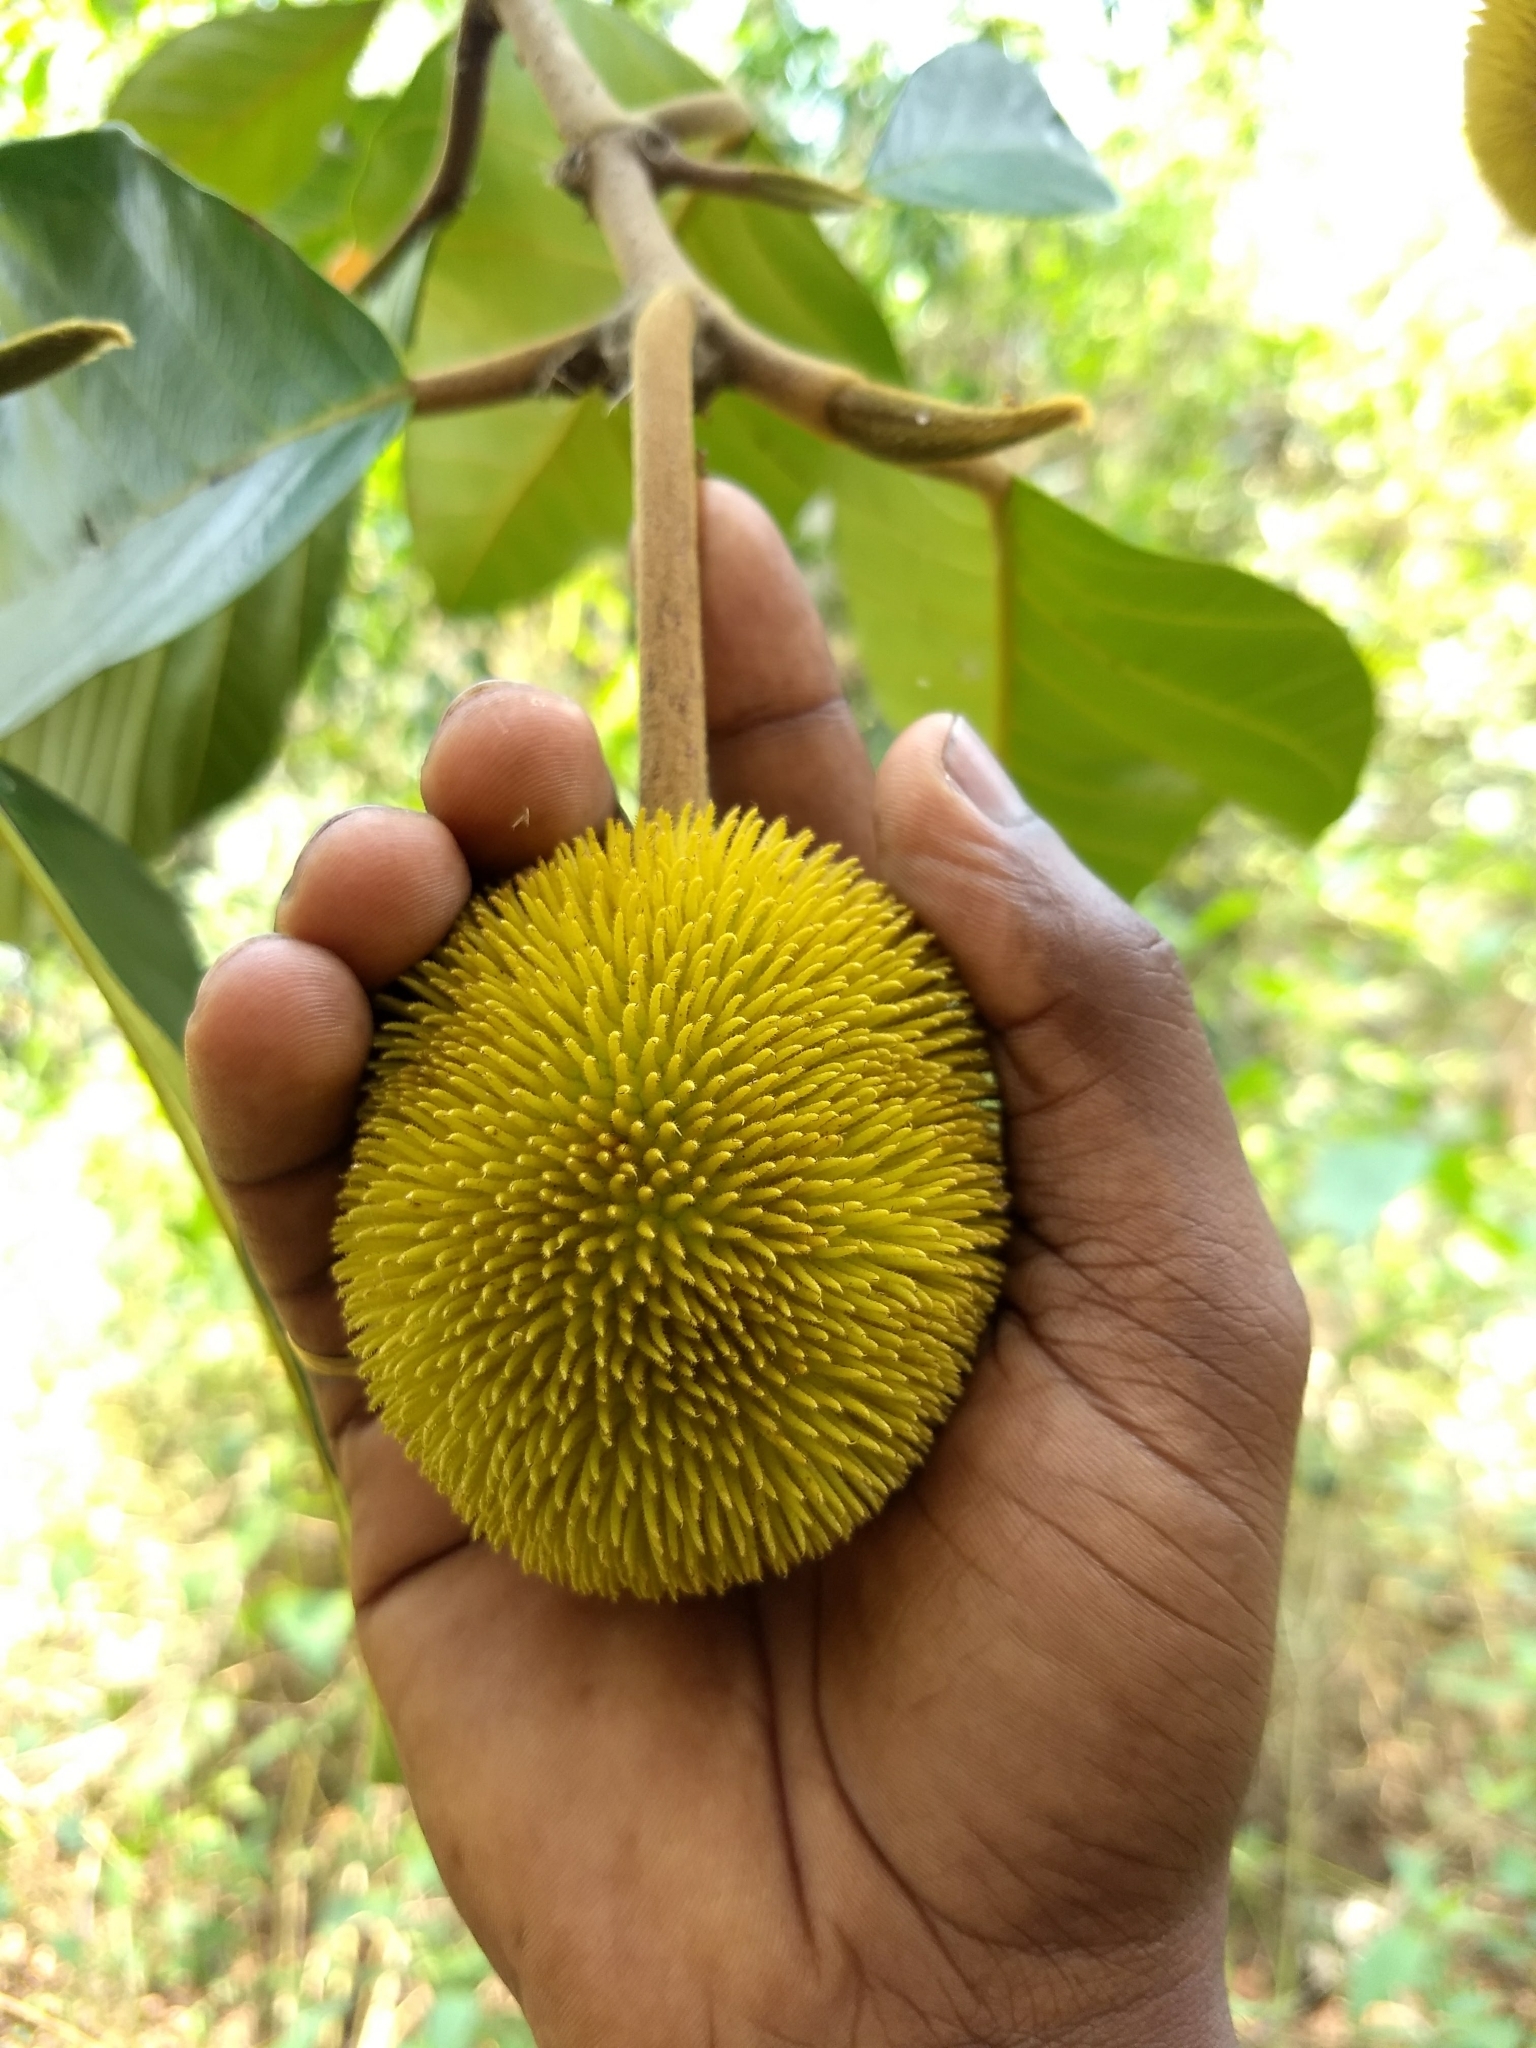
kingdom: Plantae
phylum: Tracheophyta
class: Magnoliopsida
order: Rosales
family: Moraceae
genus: Artocarpus
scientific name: Artocarpus hirsutus
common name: Hairy bread-fruit tree
